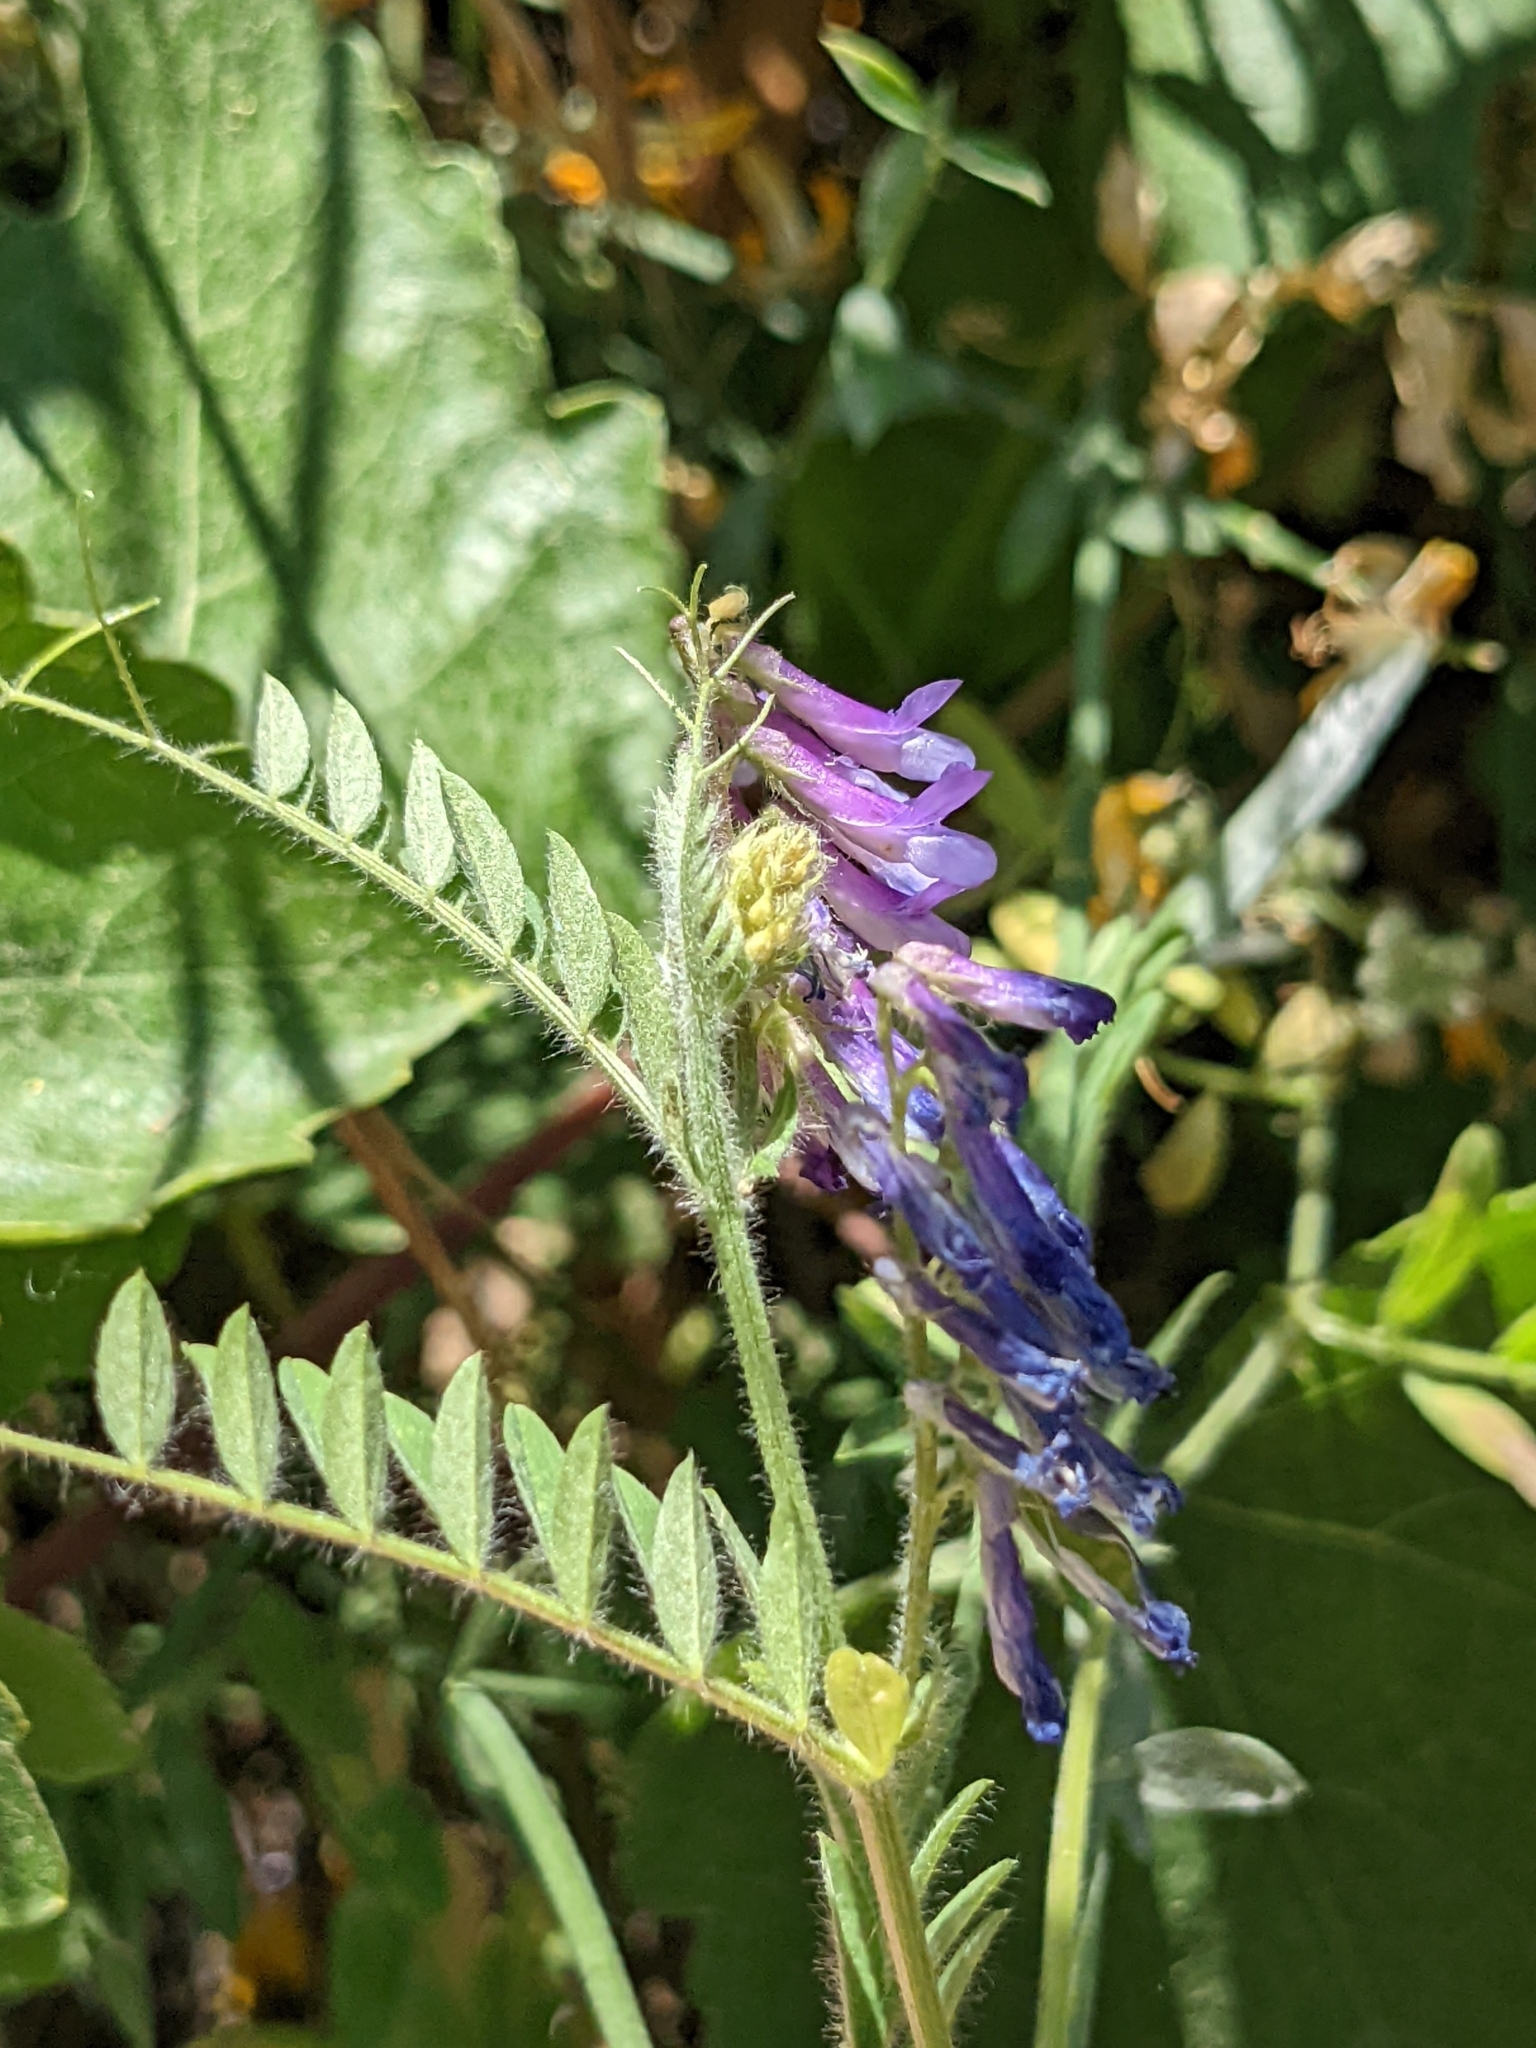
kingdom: Plantae
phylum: Tracheophyta
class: Magnoliopsida
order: Fabales
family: Fabaceae
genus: Vicia
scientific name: Vicia villosa
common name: Fodder vetch
